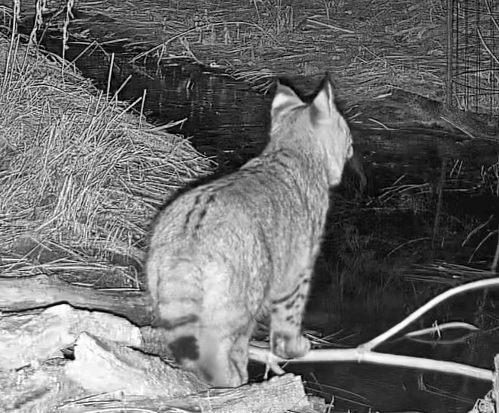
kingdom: Animalia
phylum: Chordata
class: Mammalia
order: Carnivora
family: Felidae
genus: Lynx
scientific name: Lynx rufus
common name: Bobcat
